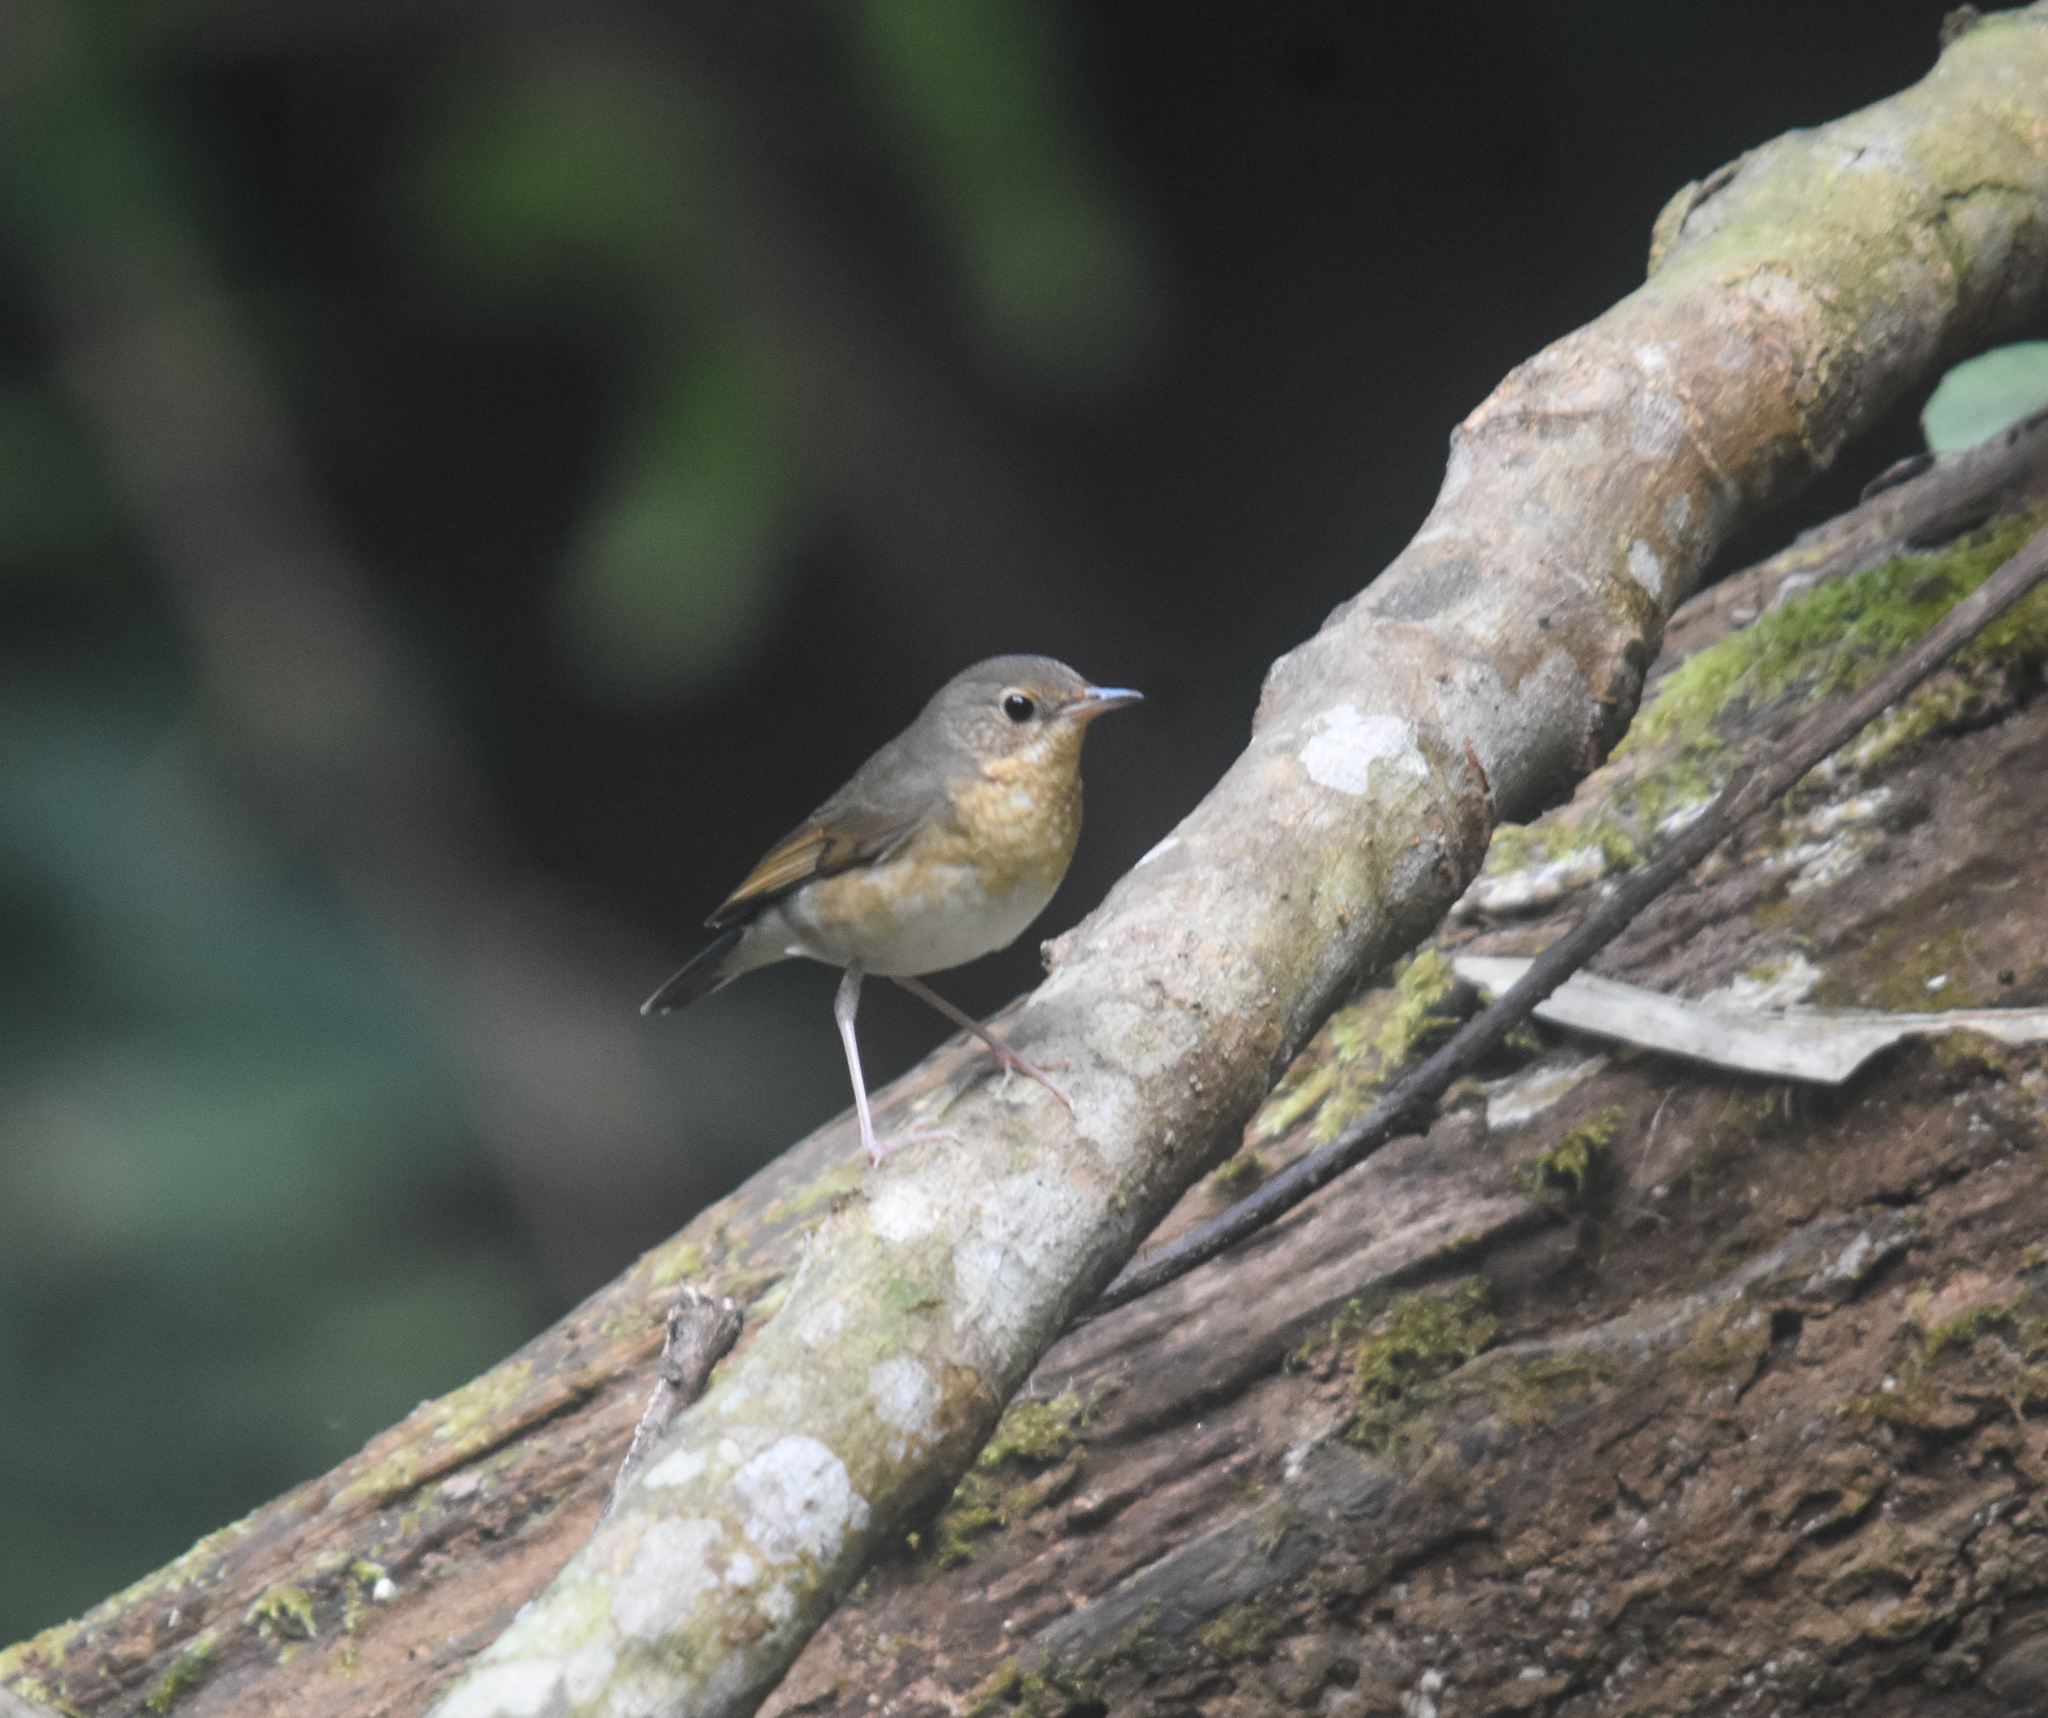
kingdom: Animalia
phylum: Chordata
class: Aves
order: Passeriformes
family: Muscicapidae
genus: Luscinia
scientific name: Luscinia cyane
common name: Siberian blue robin
